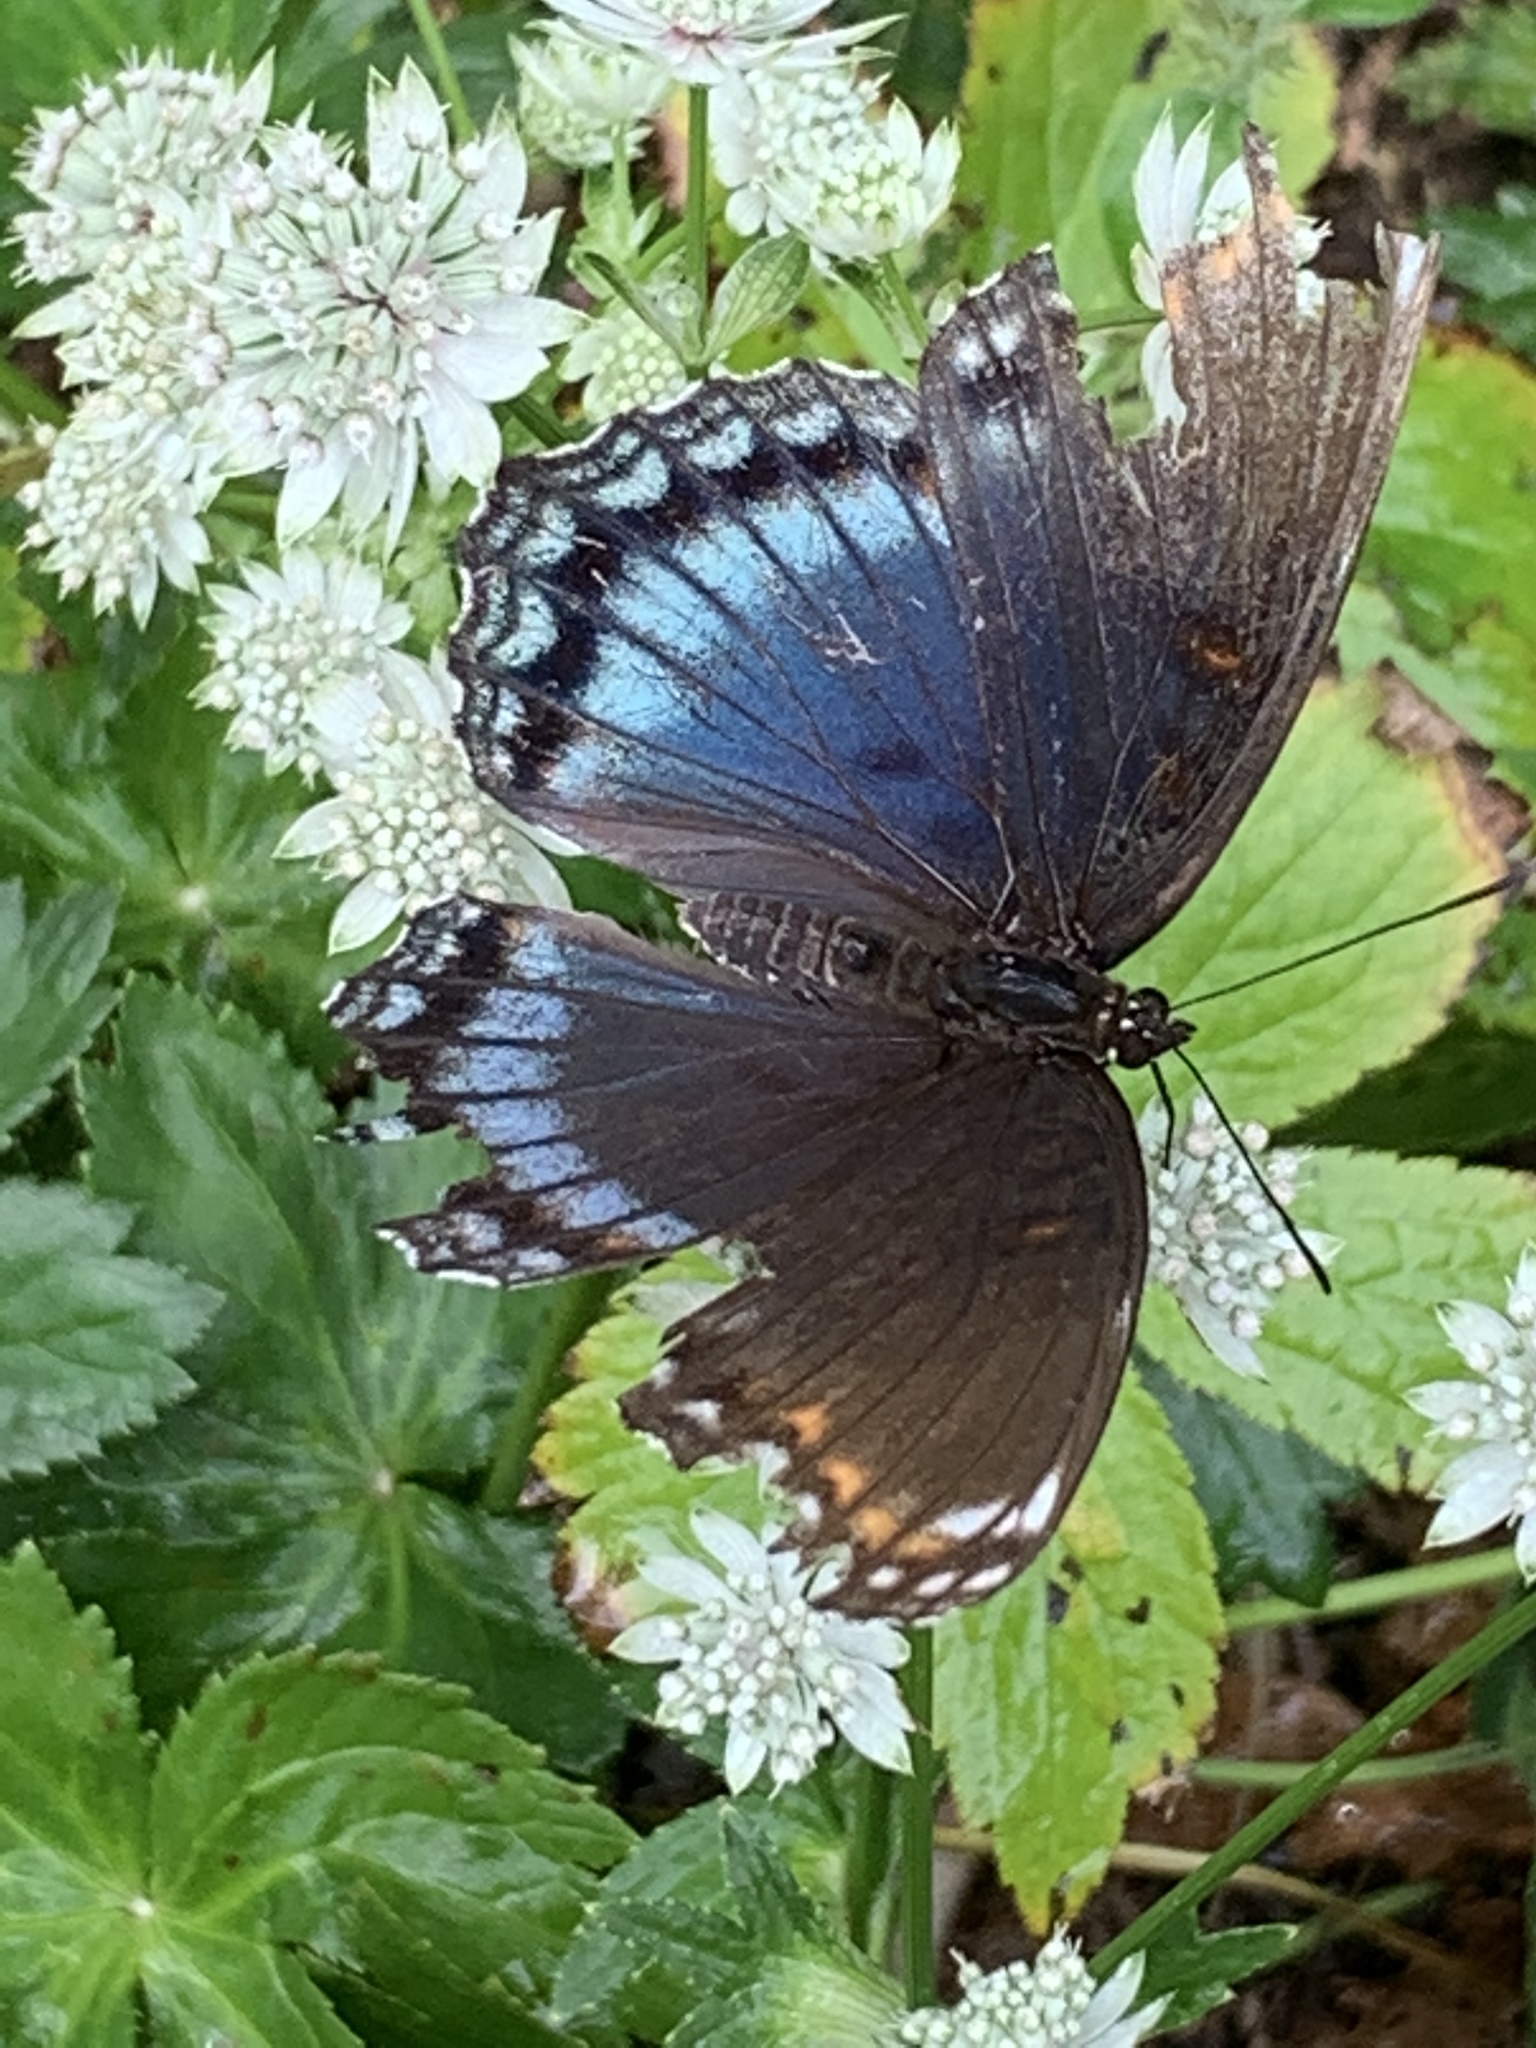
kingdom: Animalia
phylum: Arthropoda
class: Insecta
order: Lepidoptera
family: Nymphalidae
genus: Limenitis
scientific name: Limenitis astyanax
